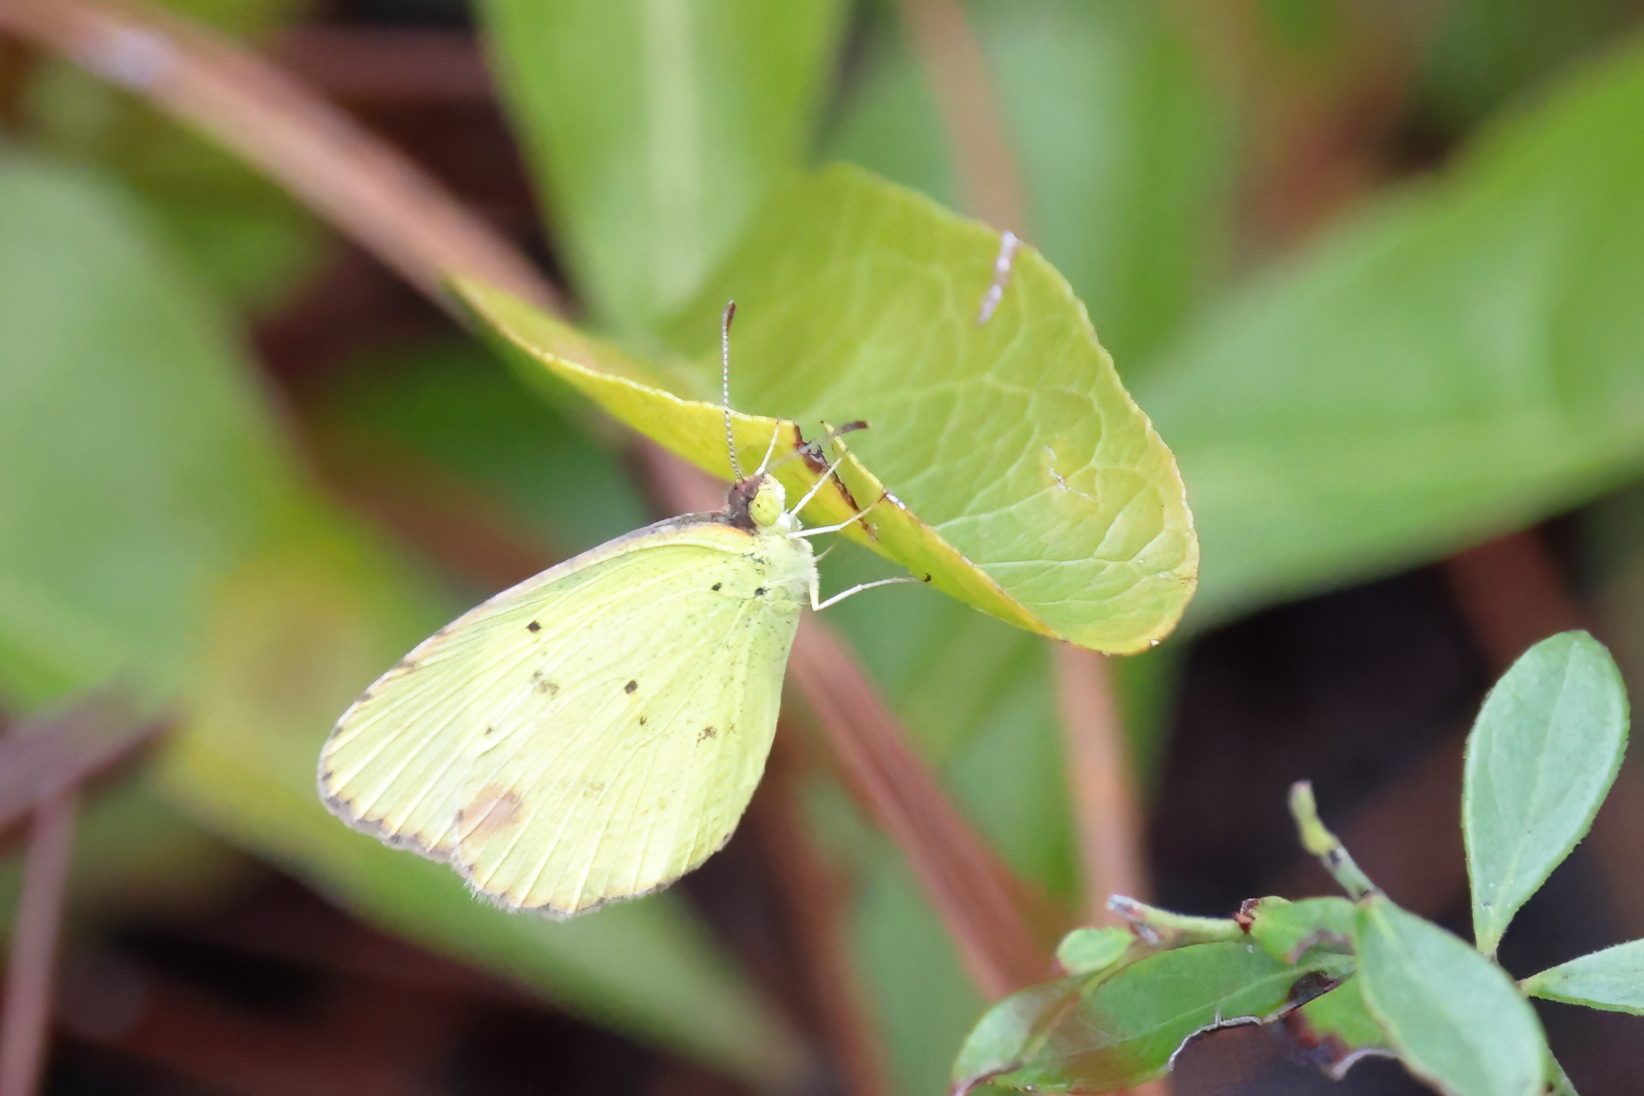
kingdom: Animalia
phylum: Arthropoda
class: Insecta
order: Lepidoptera
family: Pieridae
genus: Pyrisitia
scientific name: Pyrisitia lisa
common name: Little yellow
